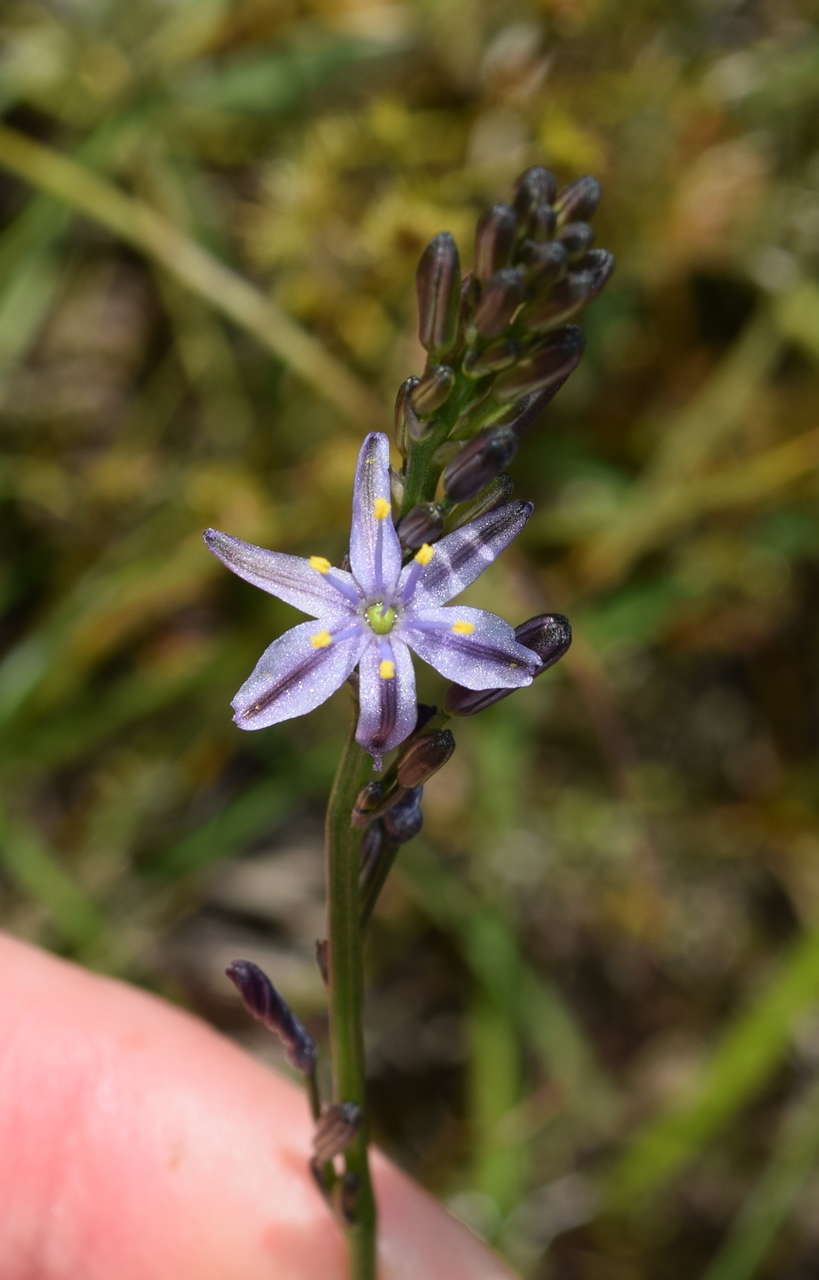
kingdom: Plantae
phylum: Tracheophyta
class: Liliopsida
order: Asparagales
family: Asphodelaceae
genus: Caesia
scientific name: Caesia calliantha
